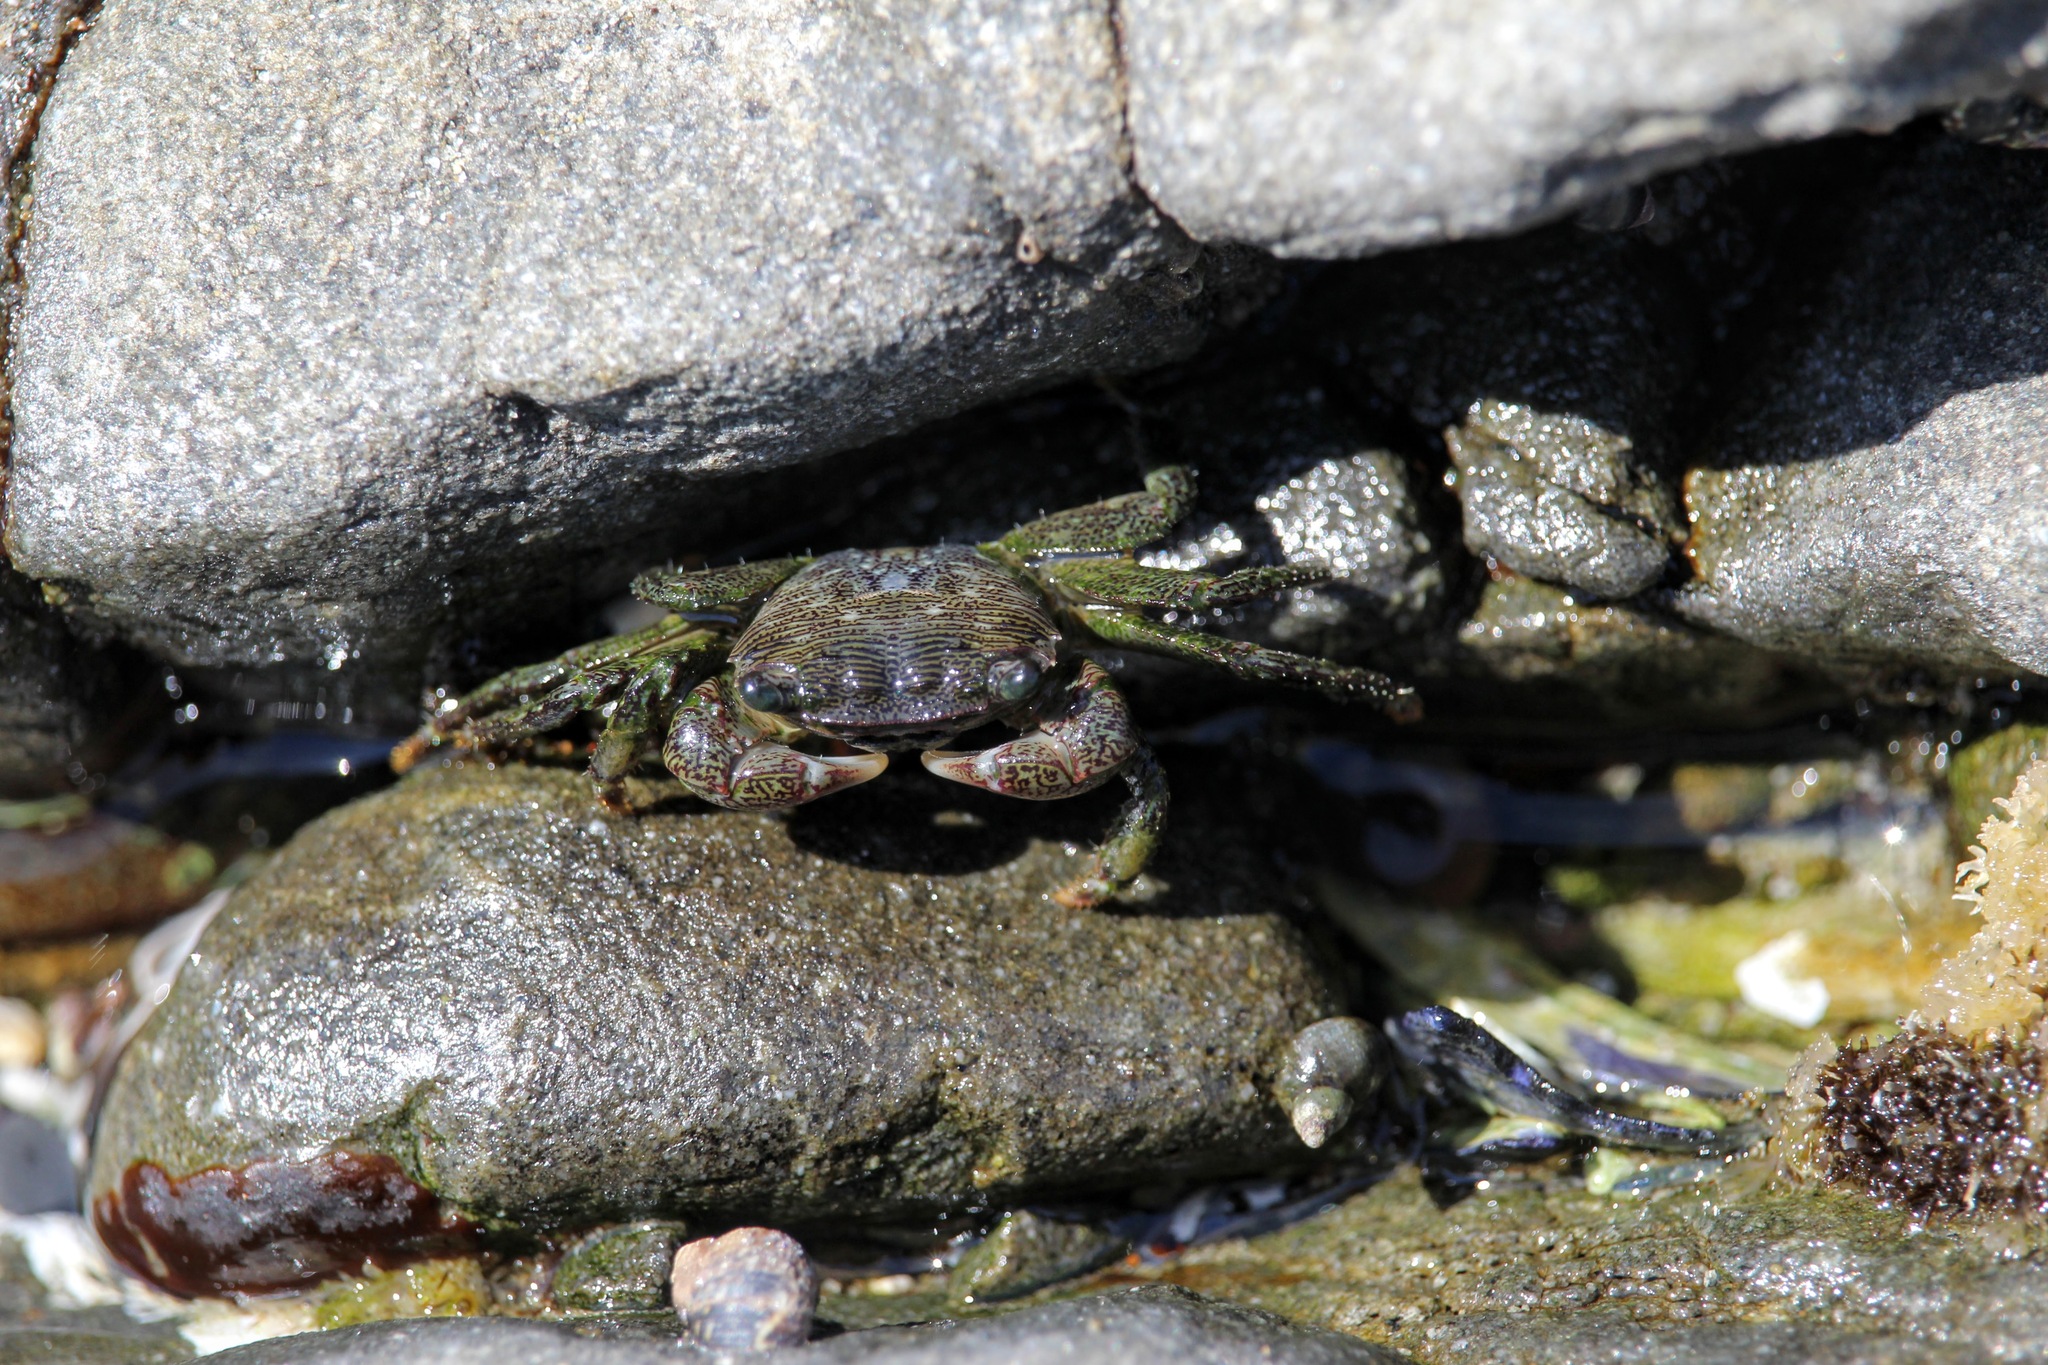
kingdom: Animalia
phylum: Arthropoda
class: Malacostraca
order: Decapoda
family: Grapsidae
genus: Pachygrapsus
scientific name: Pachygrapsus crassipes
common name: Striped shore crab
